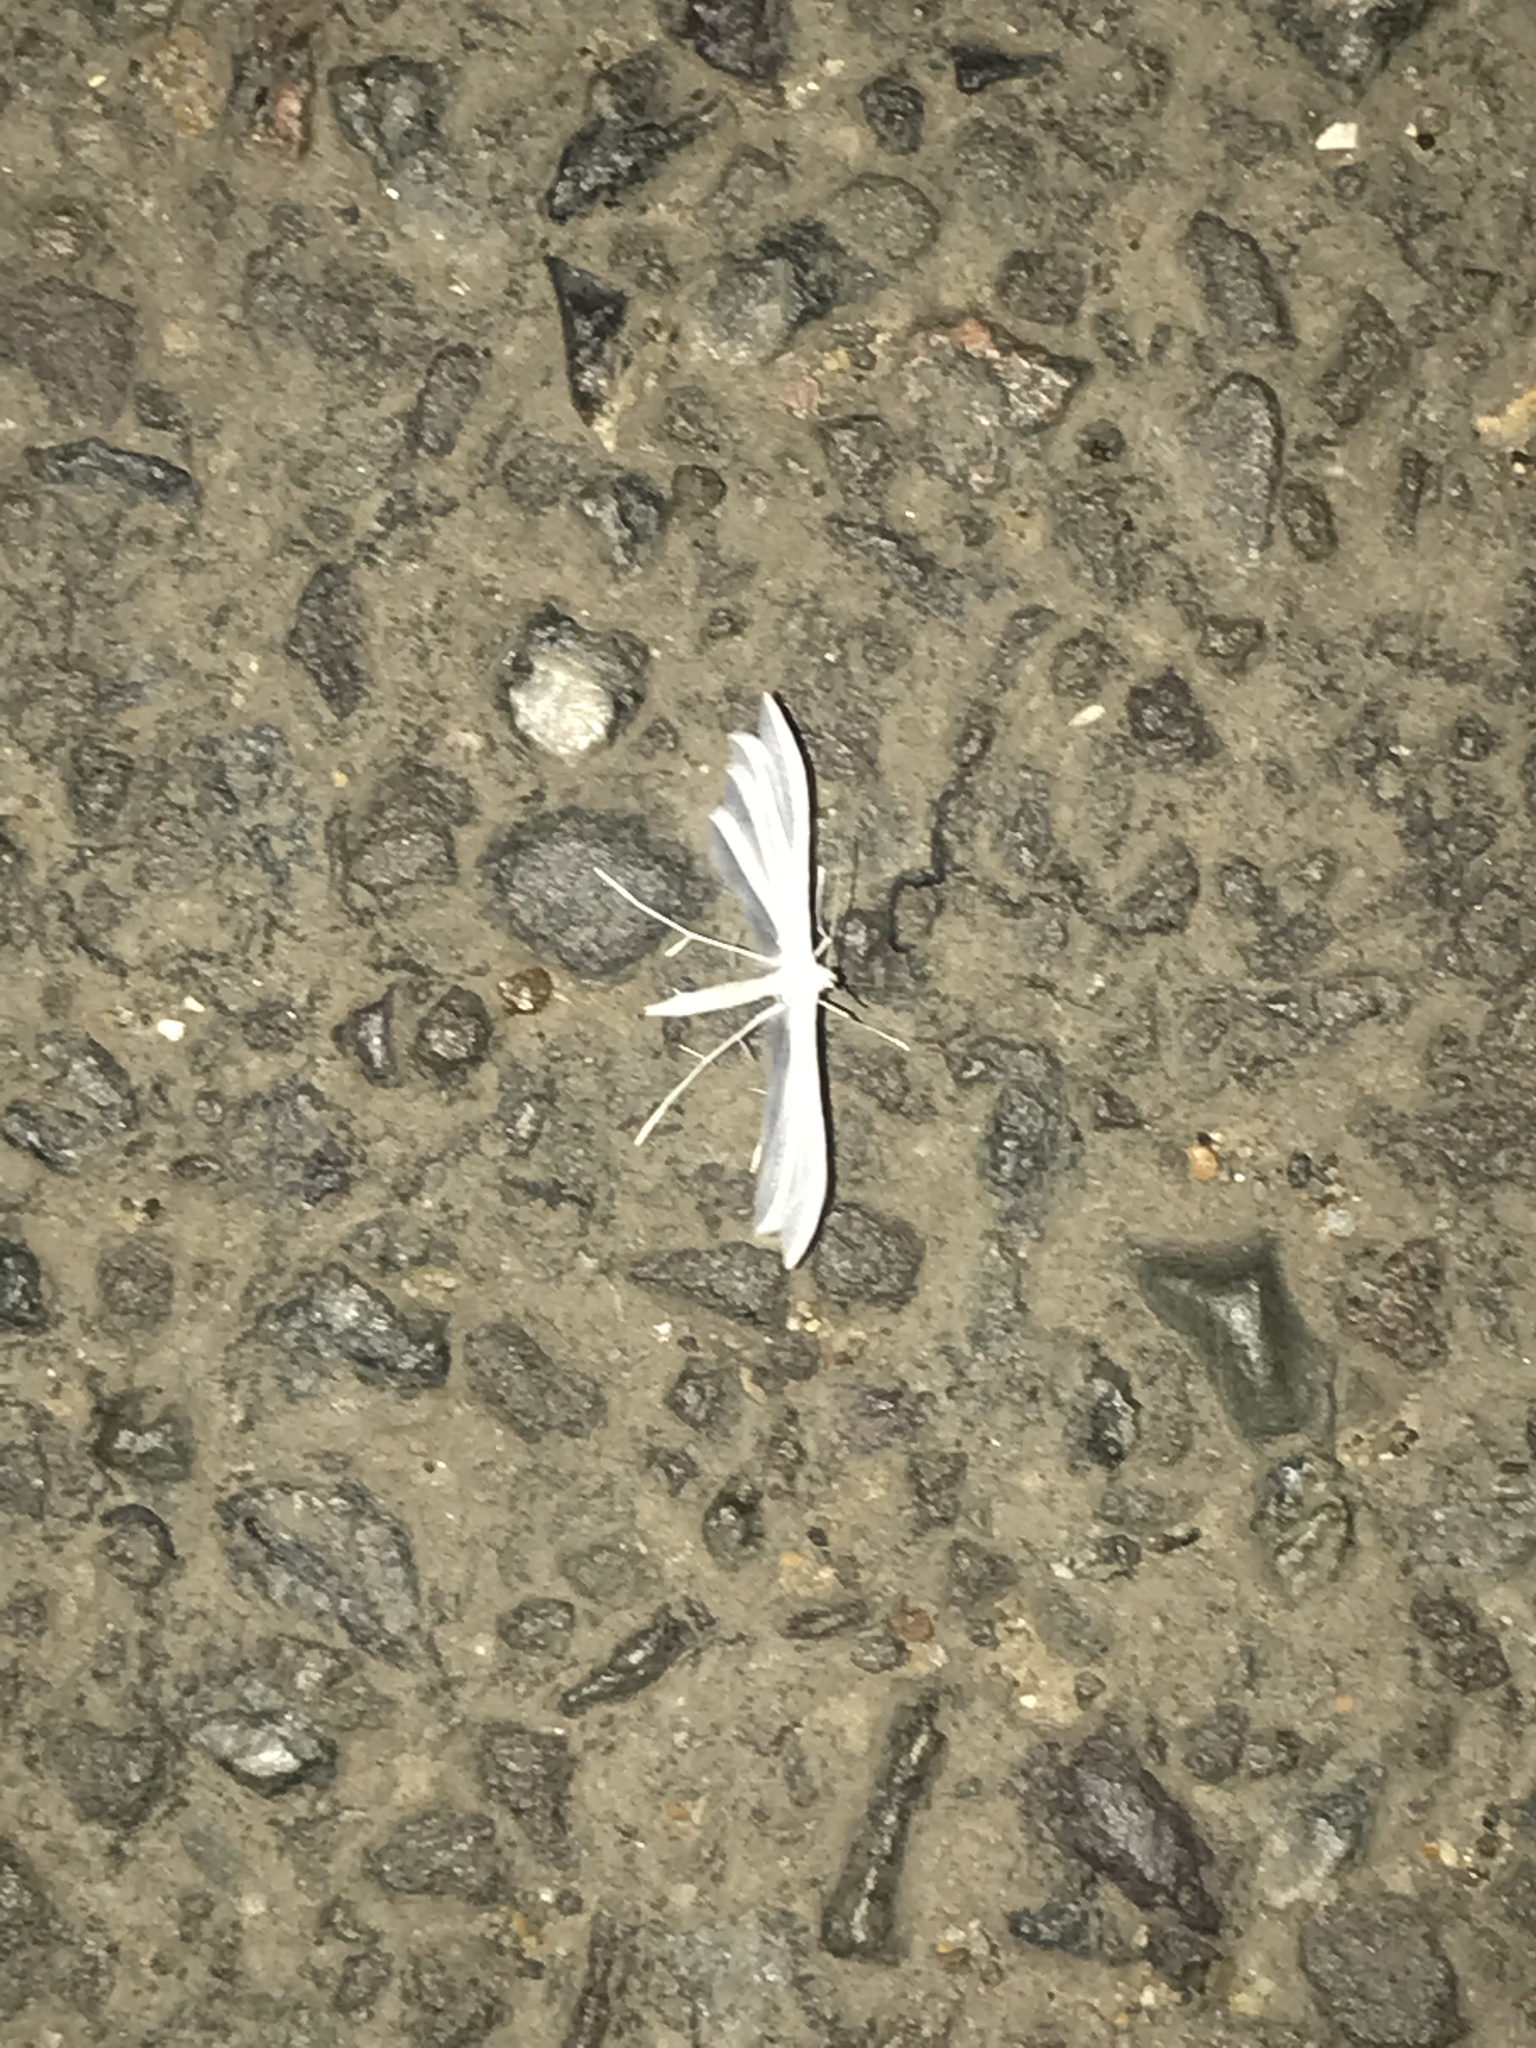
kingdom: Animalia
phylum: Arthropoda
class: Insecta
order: Lepidoptera
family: Pterophoridae
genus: Pterophorus
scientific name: Pterophorus pentadactyla
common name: White plume moth
